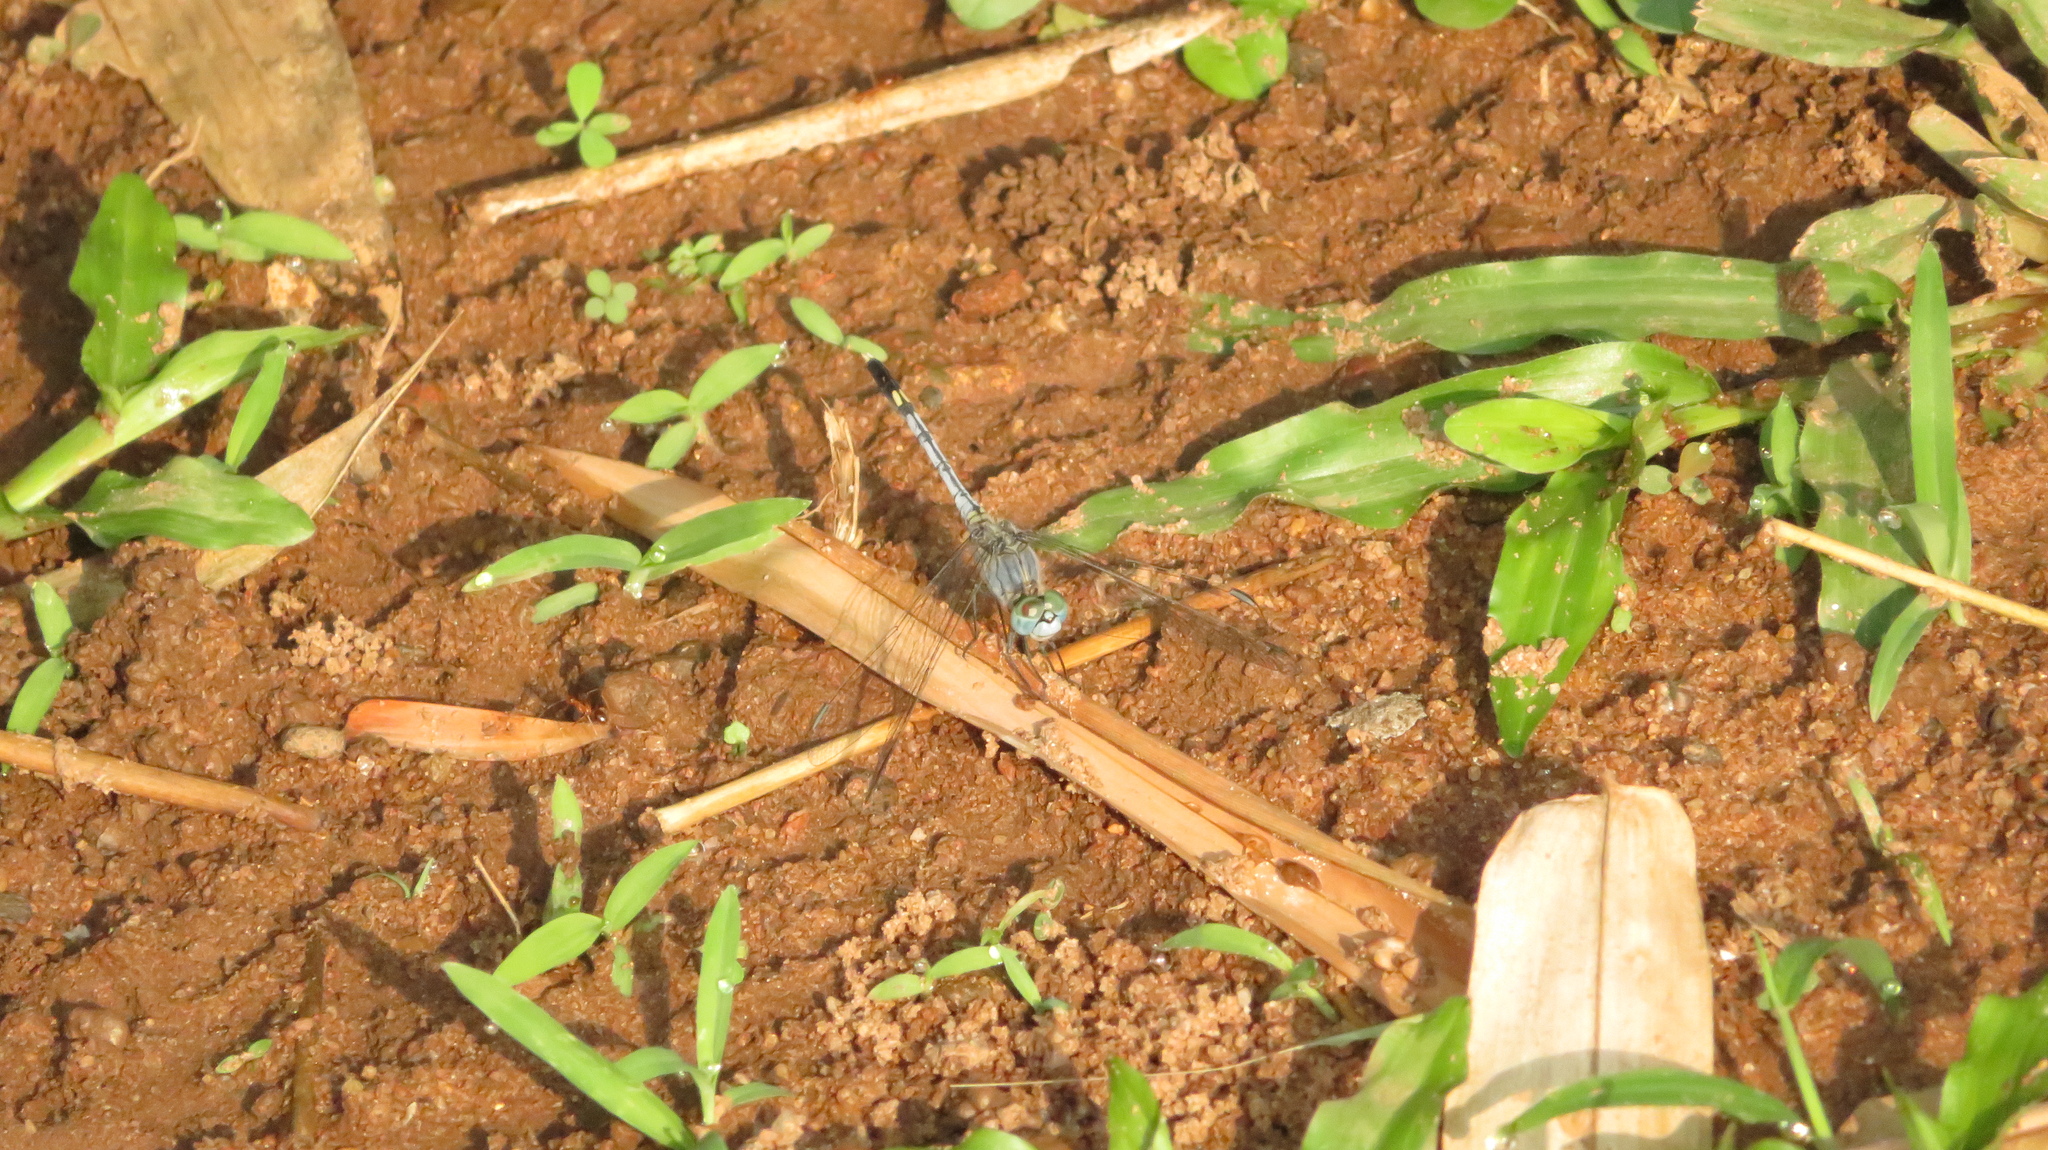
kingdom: Animalia
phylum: Arthropoda
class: Insecta
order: Odonata
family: Libellulidae
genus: Diplacodes
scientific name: Diplacodes trivialis
